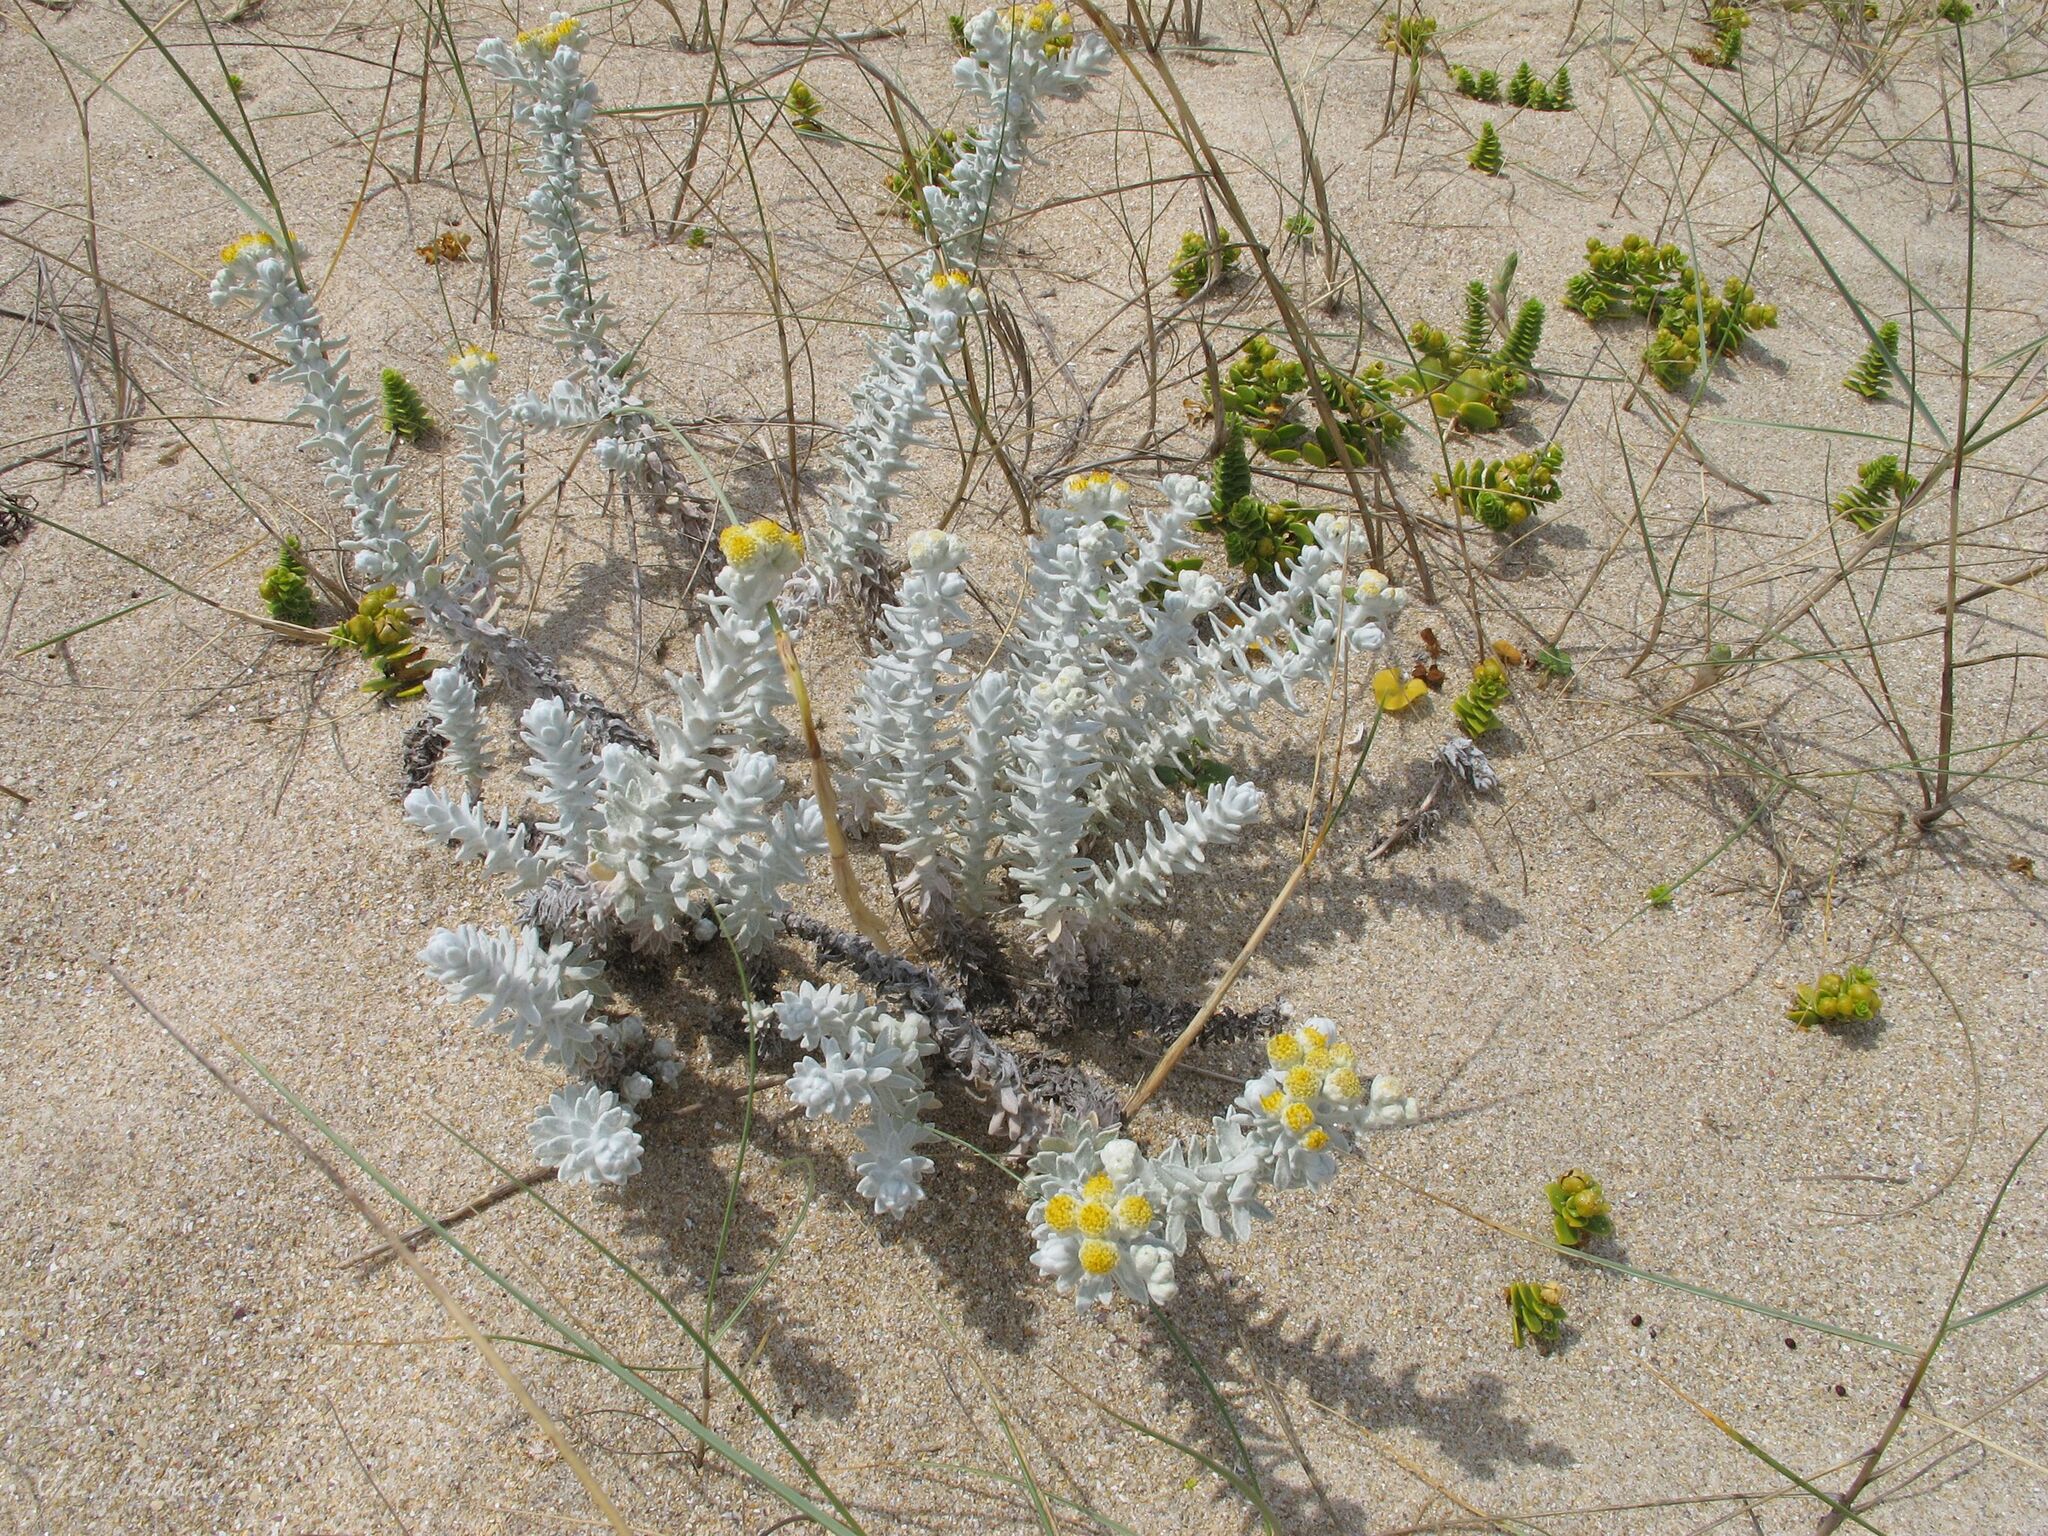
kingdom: Plantae
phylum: Tracheophyta
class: Magnoliopsida
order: Asterales
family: Asteraceae
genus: Achillea
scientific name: Achillea maritima
